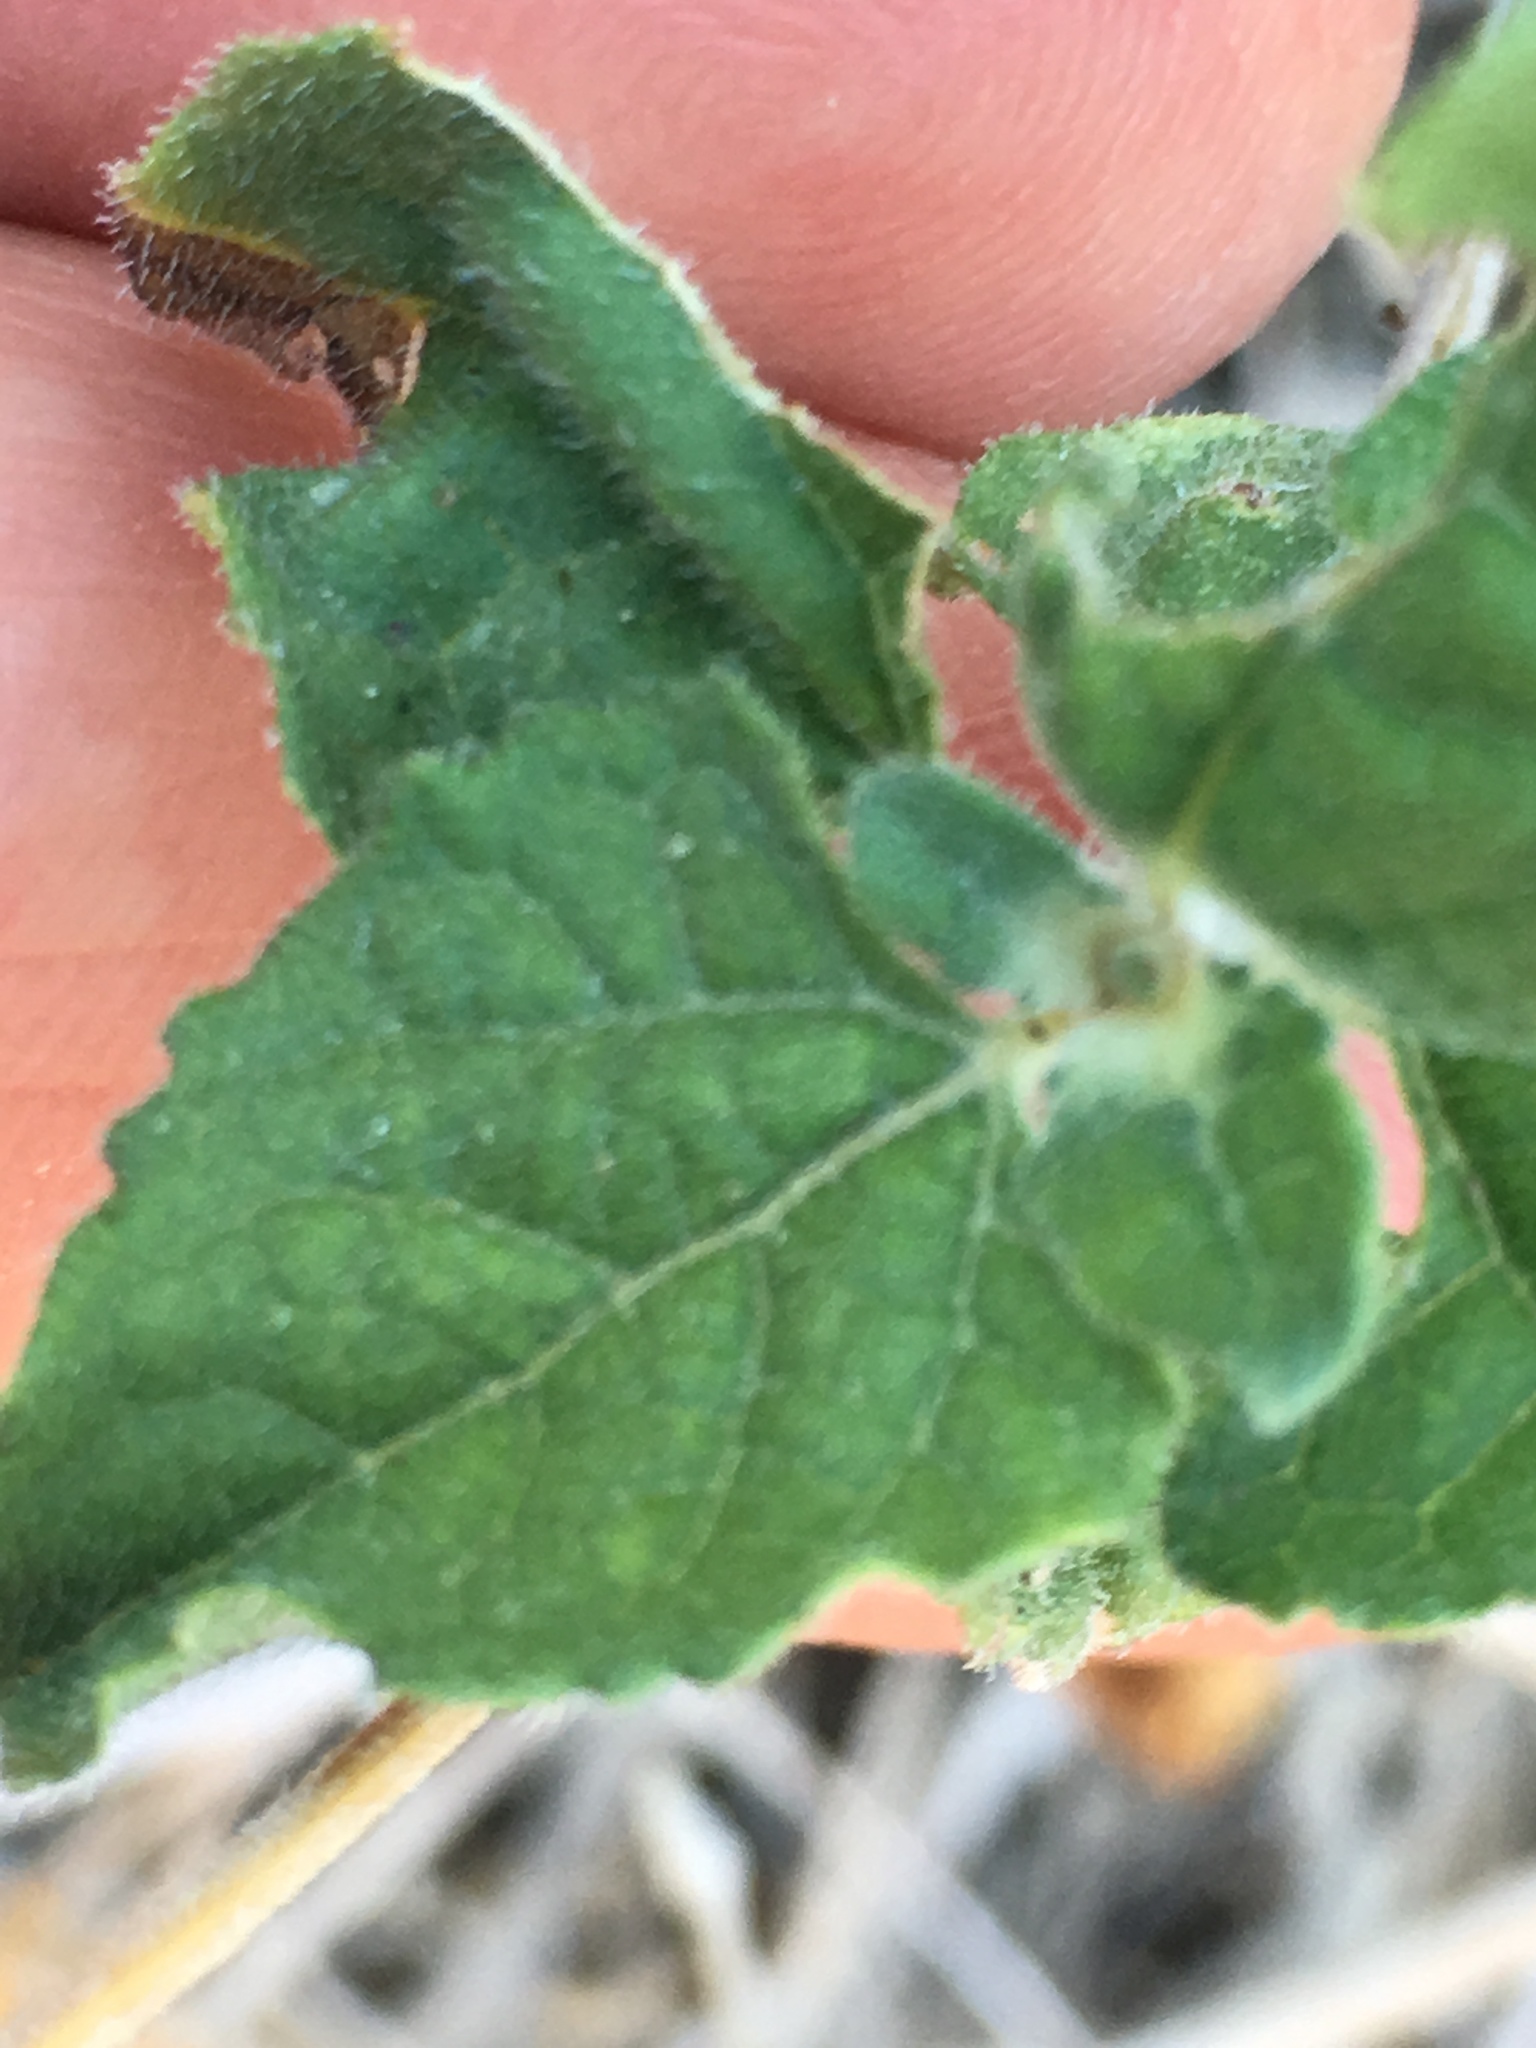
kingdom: Plantae
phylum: Tracheophyta
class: Magnoliopsida
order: Asterales
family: Asteraceae
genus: Bahiopsis
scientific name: Bahiopsis parishii
